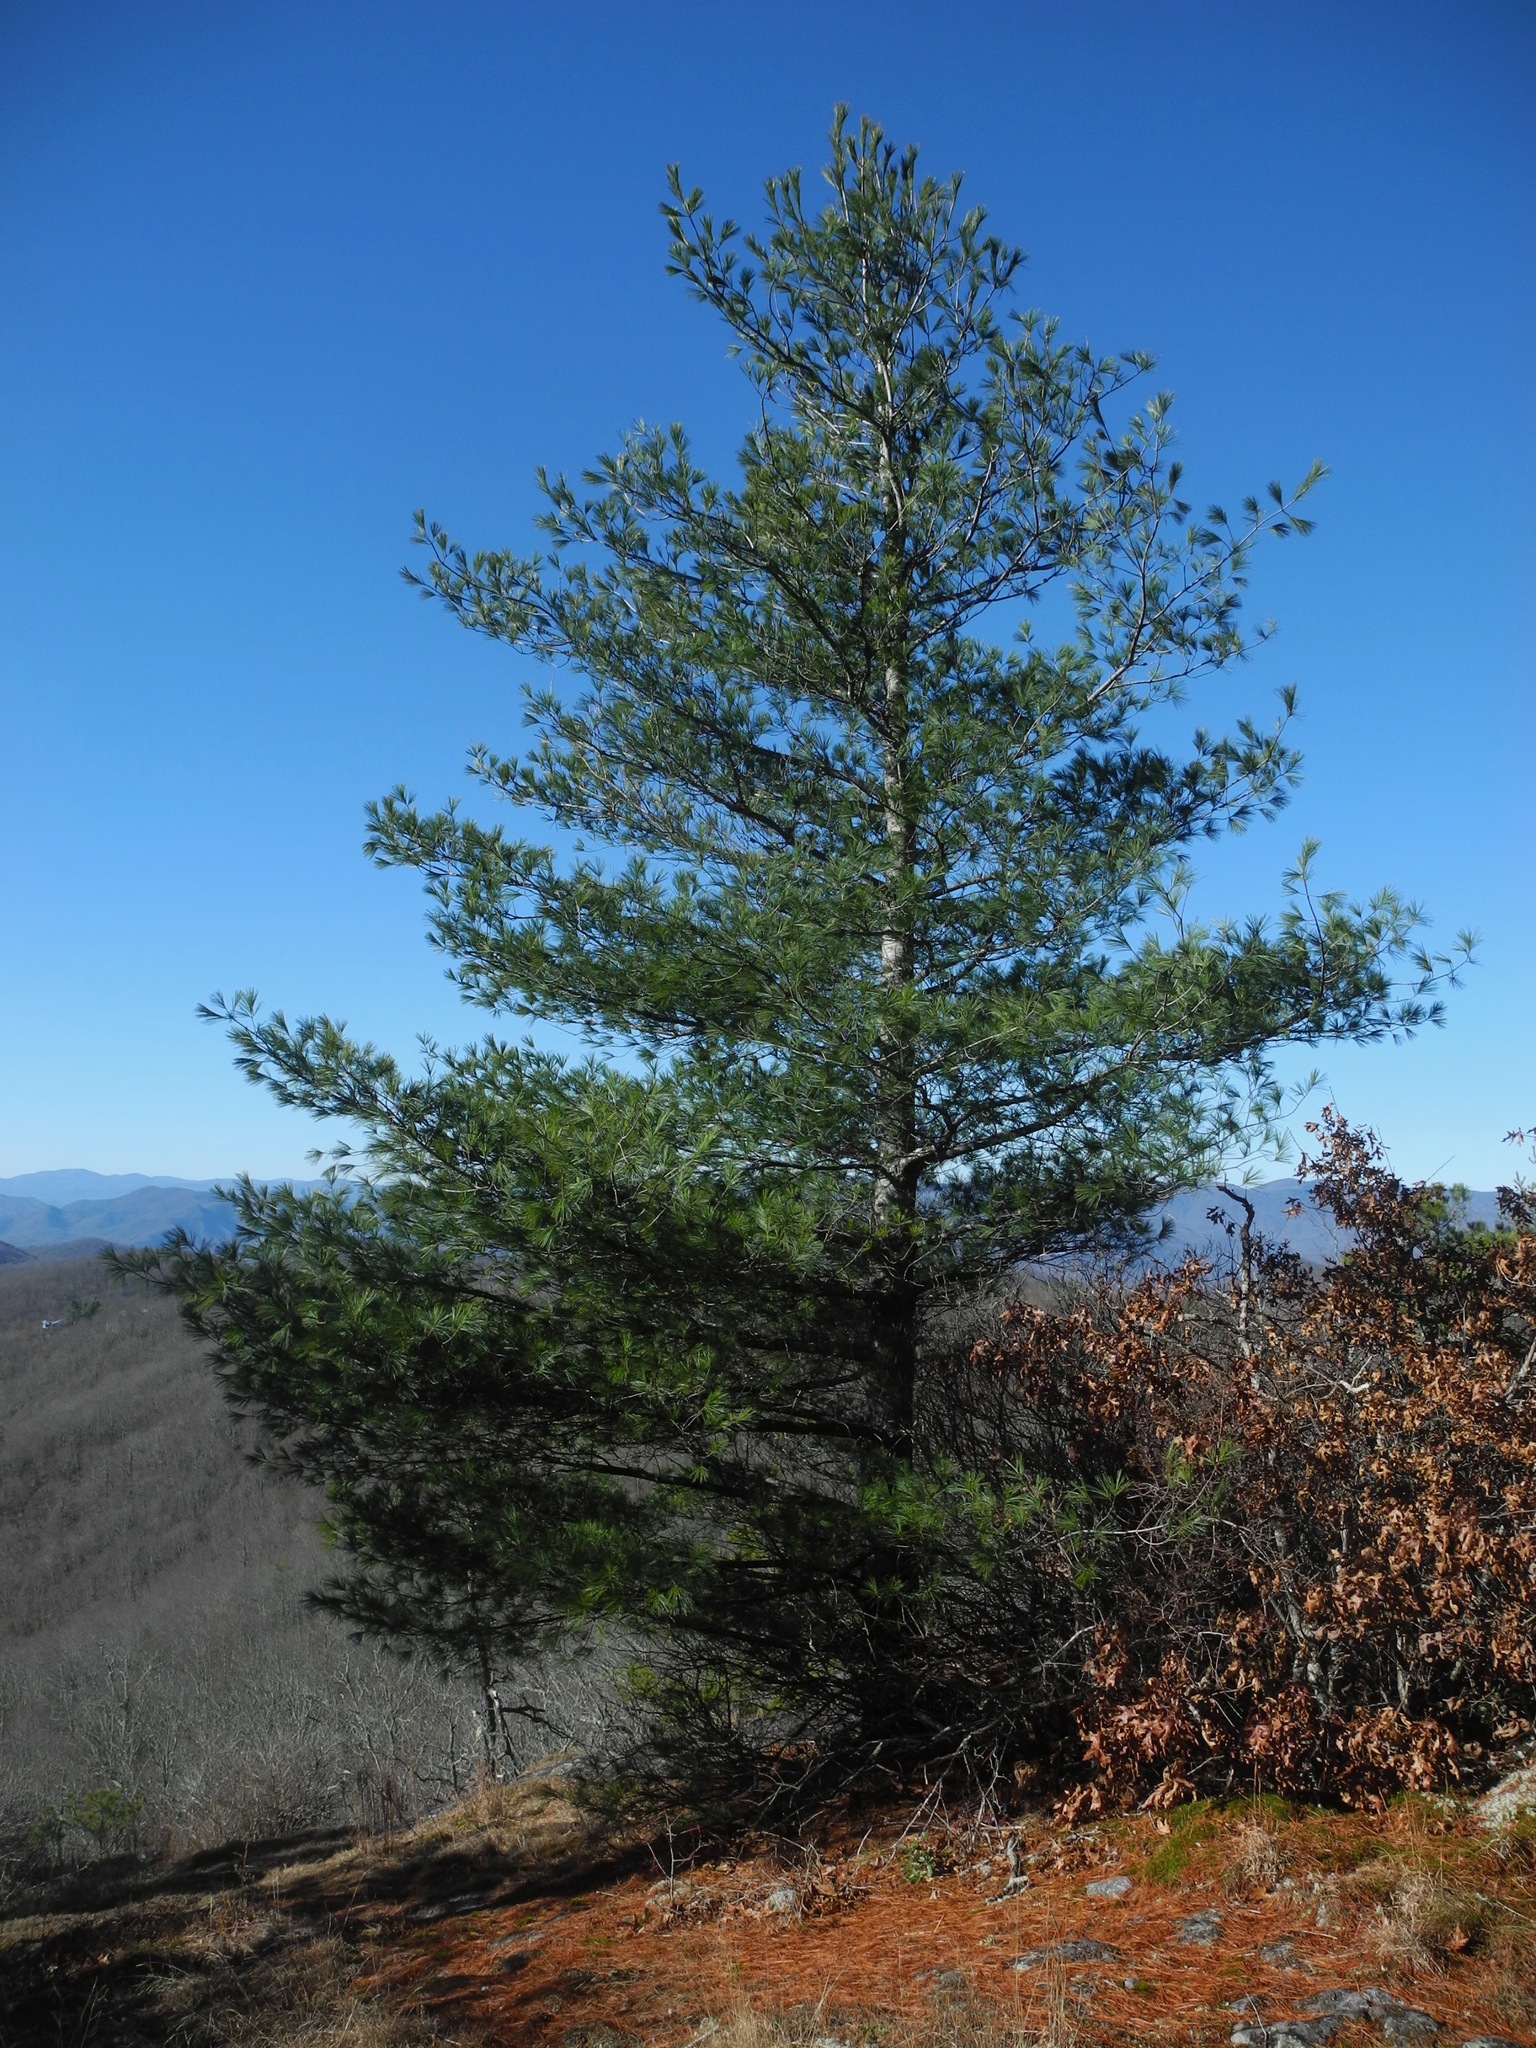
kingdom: Plantae
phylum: Tracheophyta
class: Pinopsida
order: Pinales
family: Pinaceae
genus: Pinus
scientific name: Pinus strobus
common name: Weymouth pine
